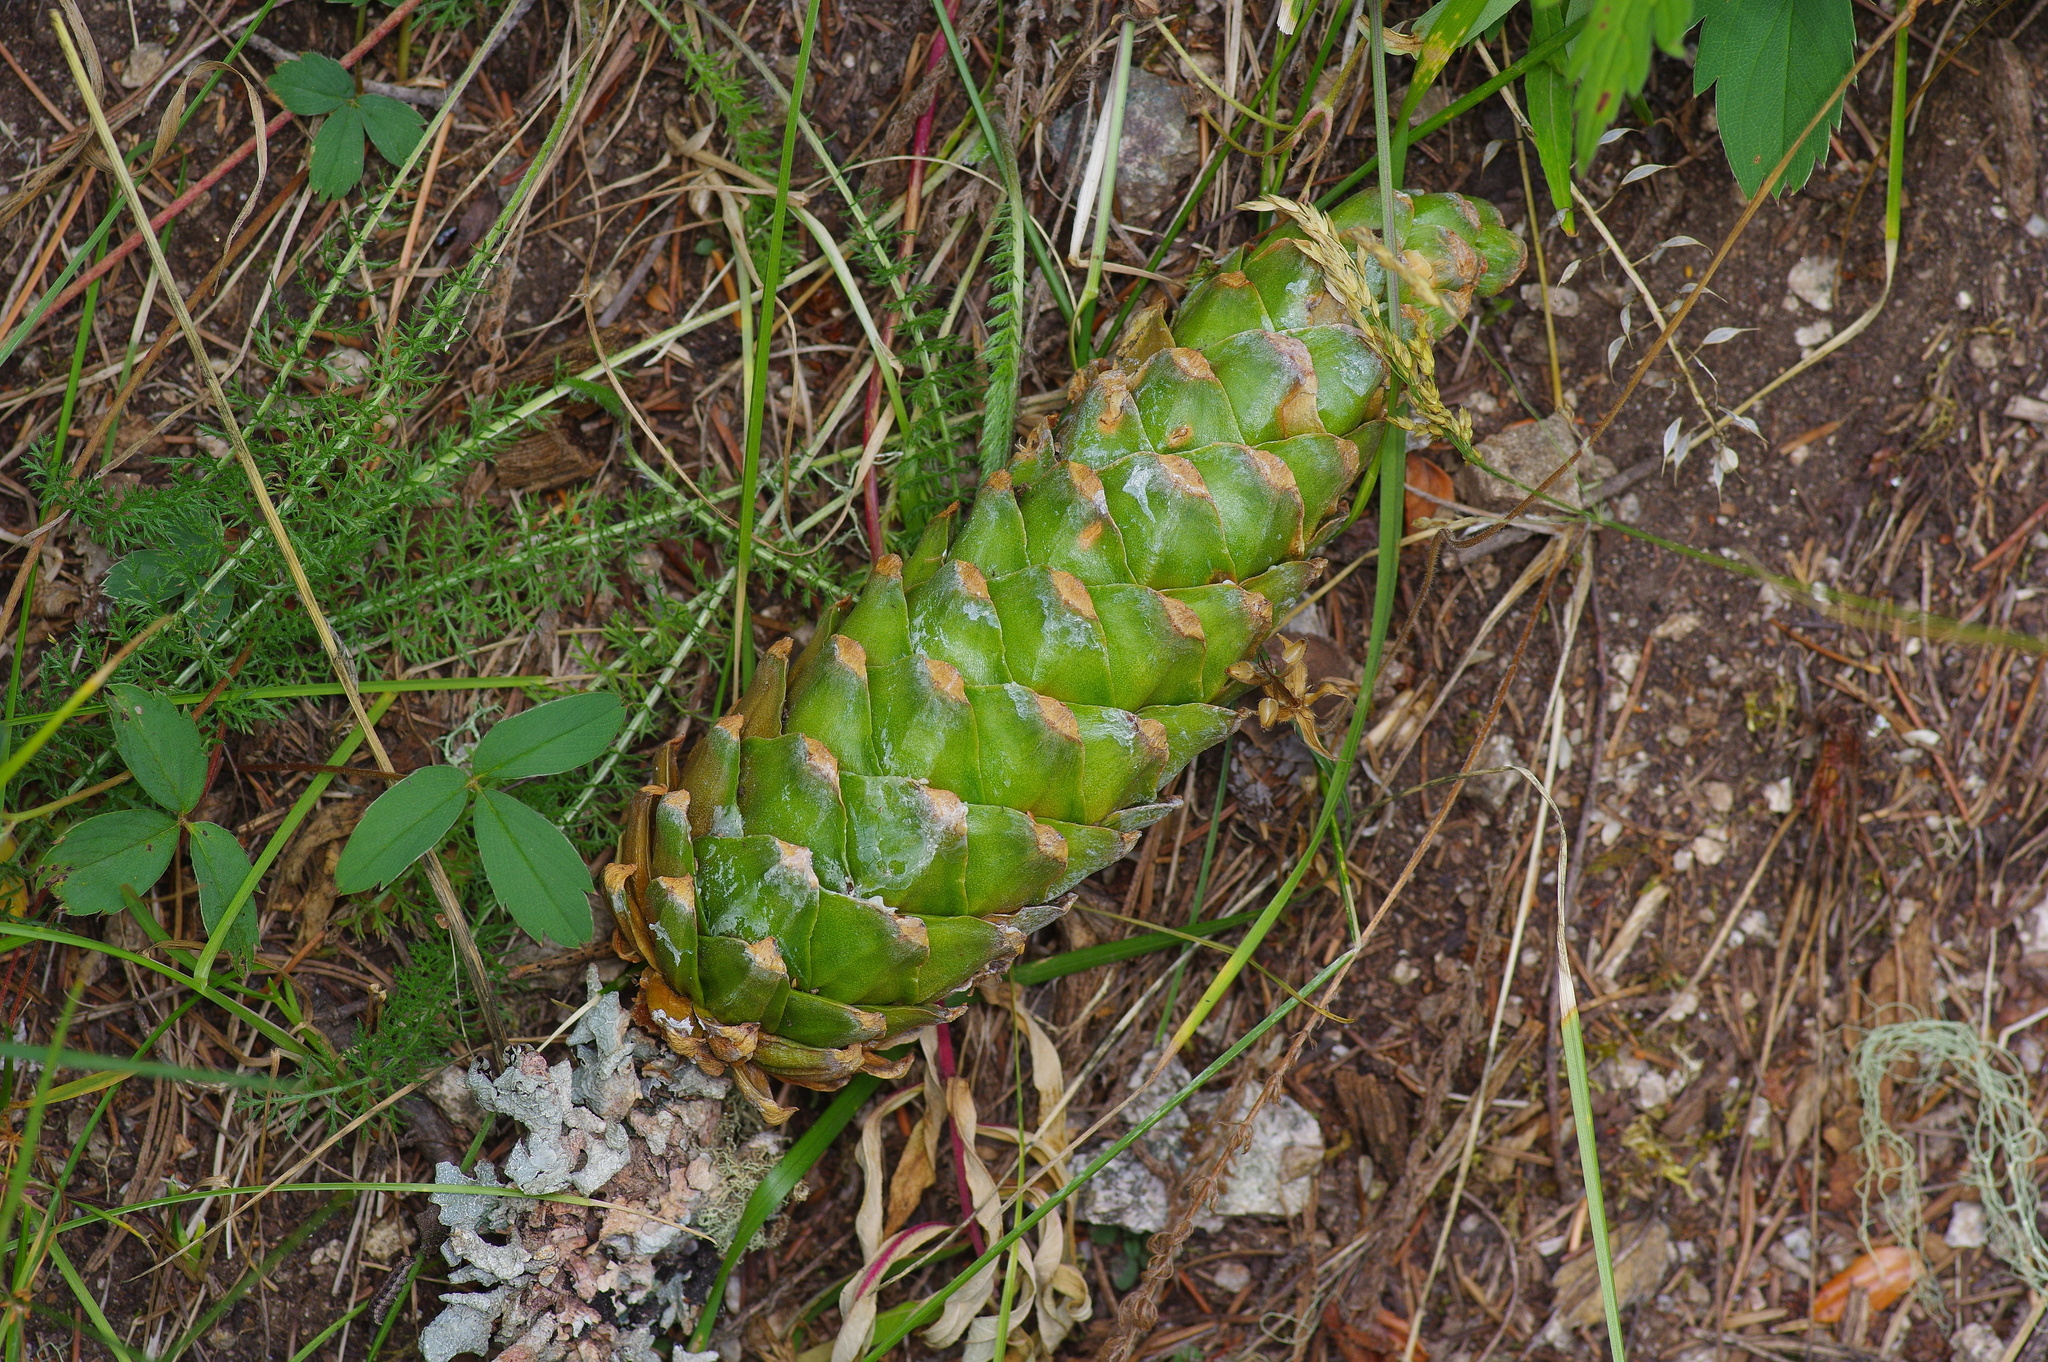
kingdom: Plantae
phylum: Tracheophyta
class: Pinopsida
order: Pinales
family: Pinaceae
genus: Pinus
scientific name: Pinus strobiformis
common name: Southwestern white pine
